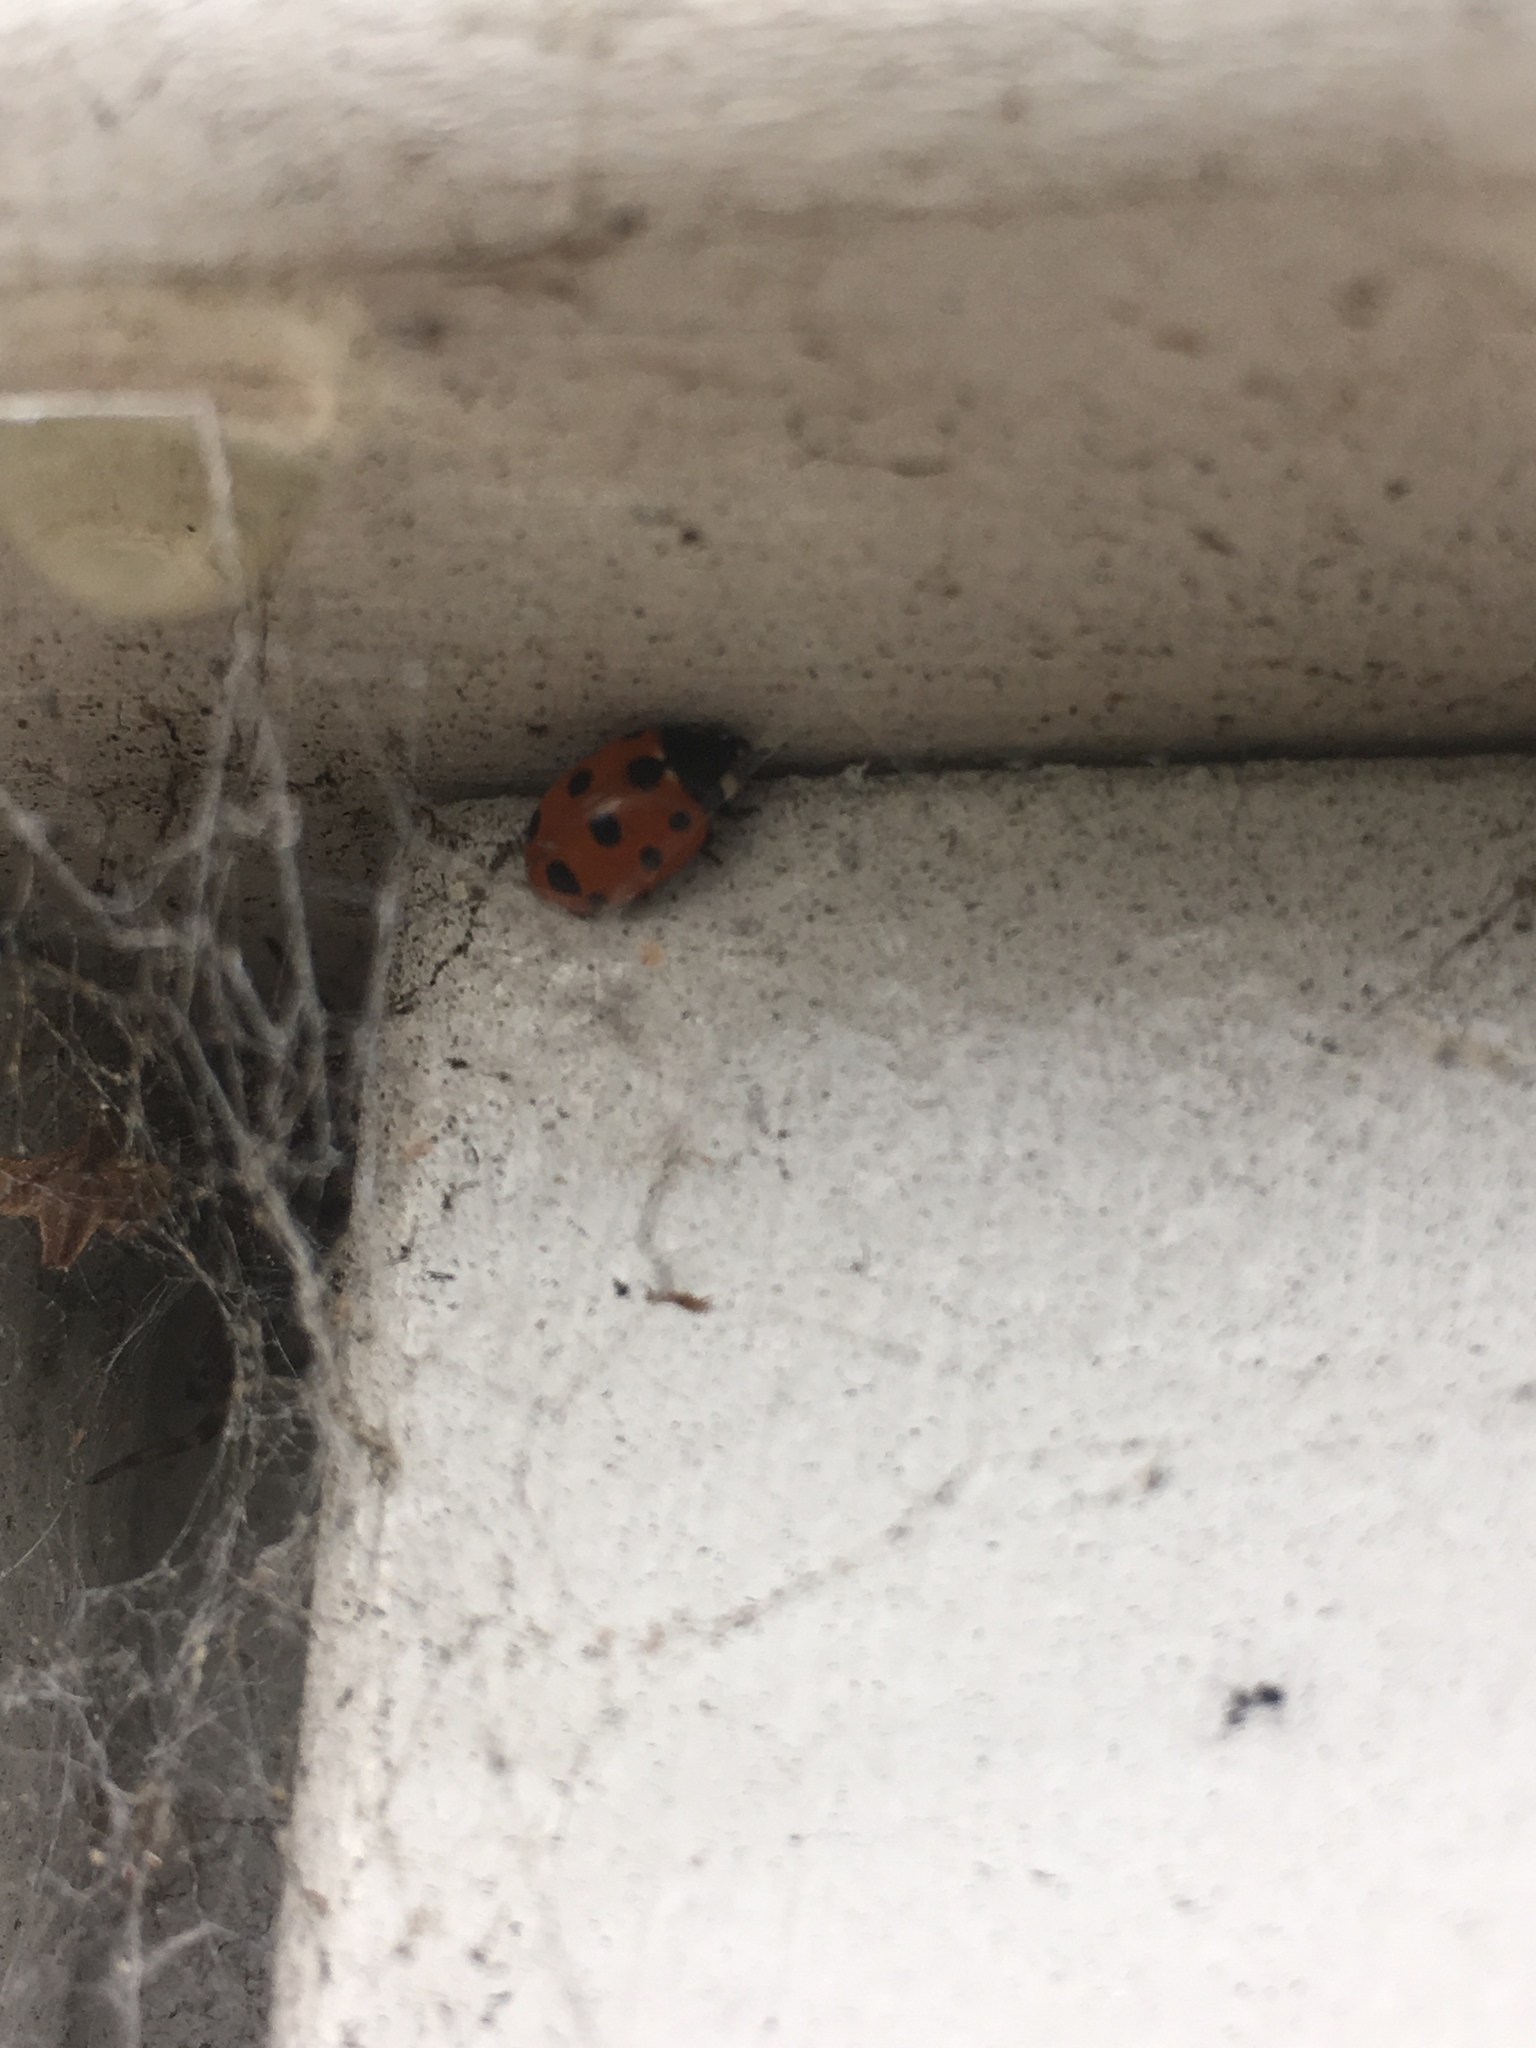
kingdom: Animalia
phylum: Arthropoda
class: Insecta
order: Coleoptera
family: Coccinellidae
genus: Coccinella
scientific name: Coccinella undecimpunctata
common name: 11-spot ladybird
